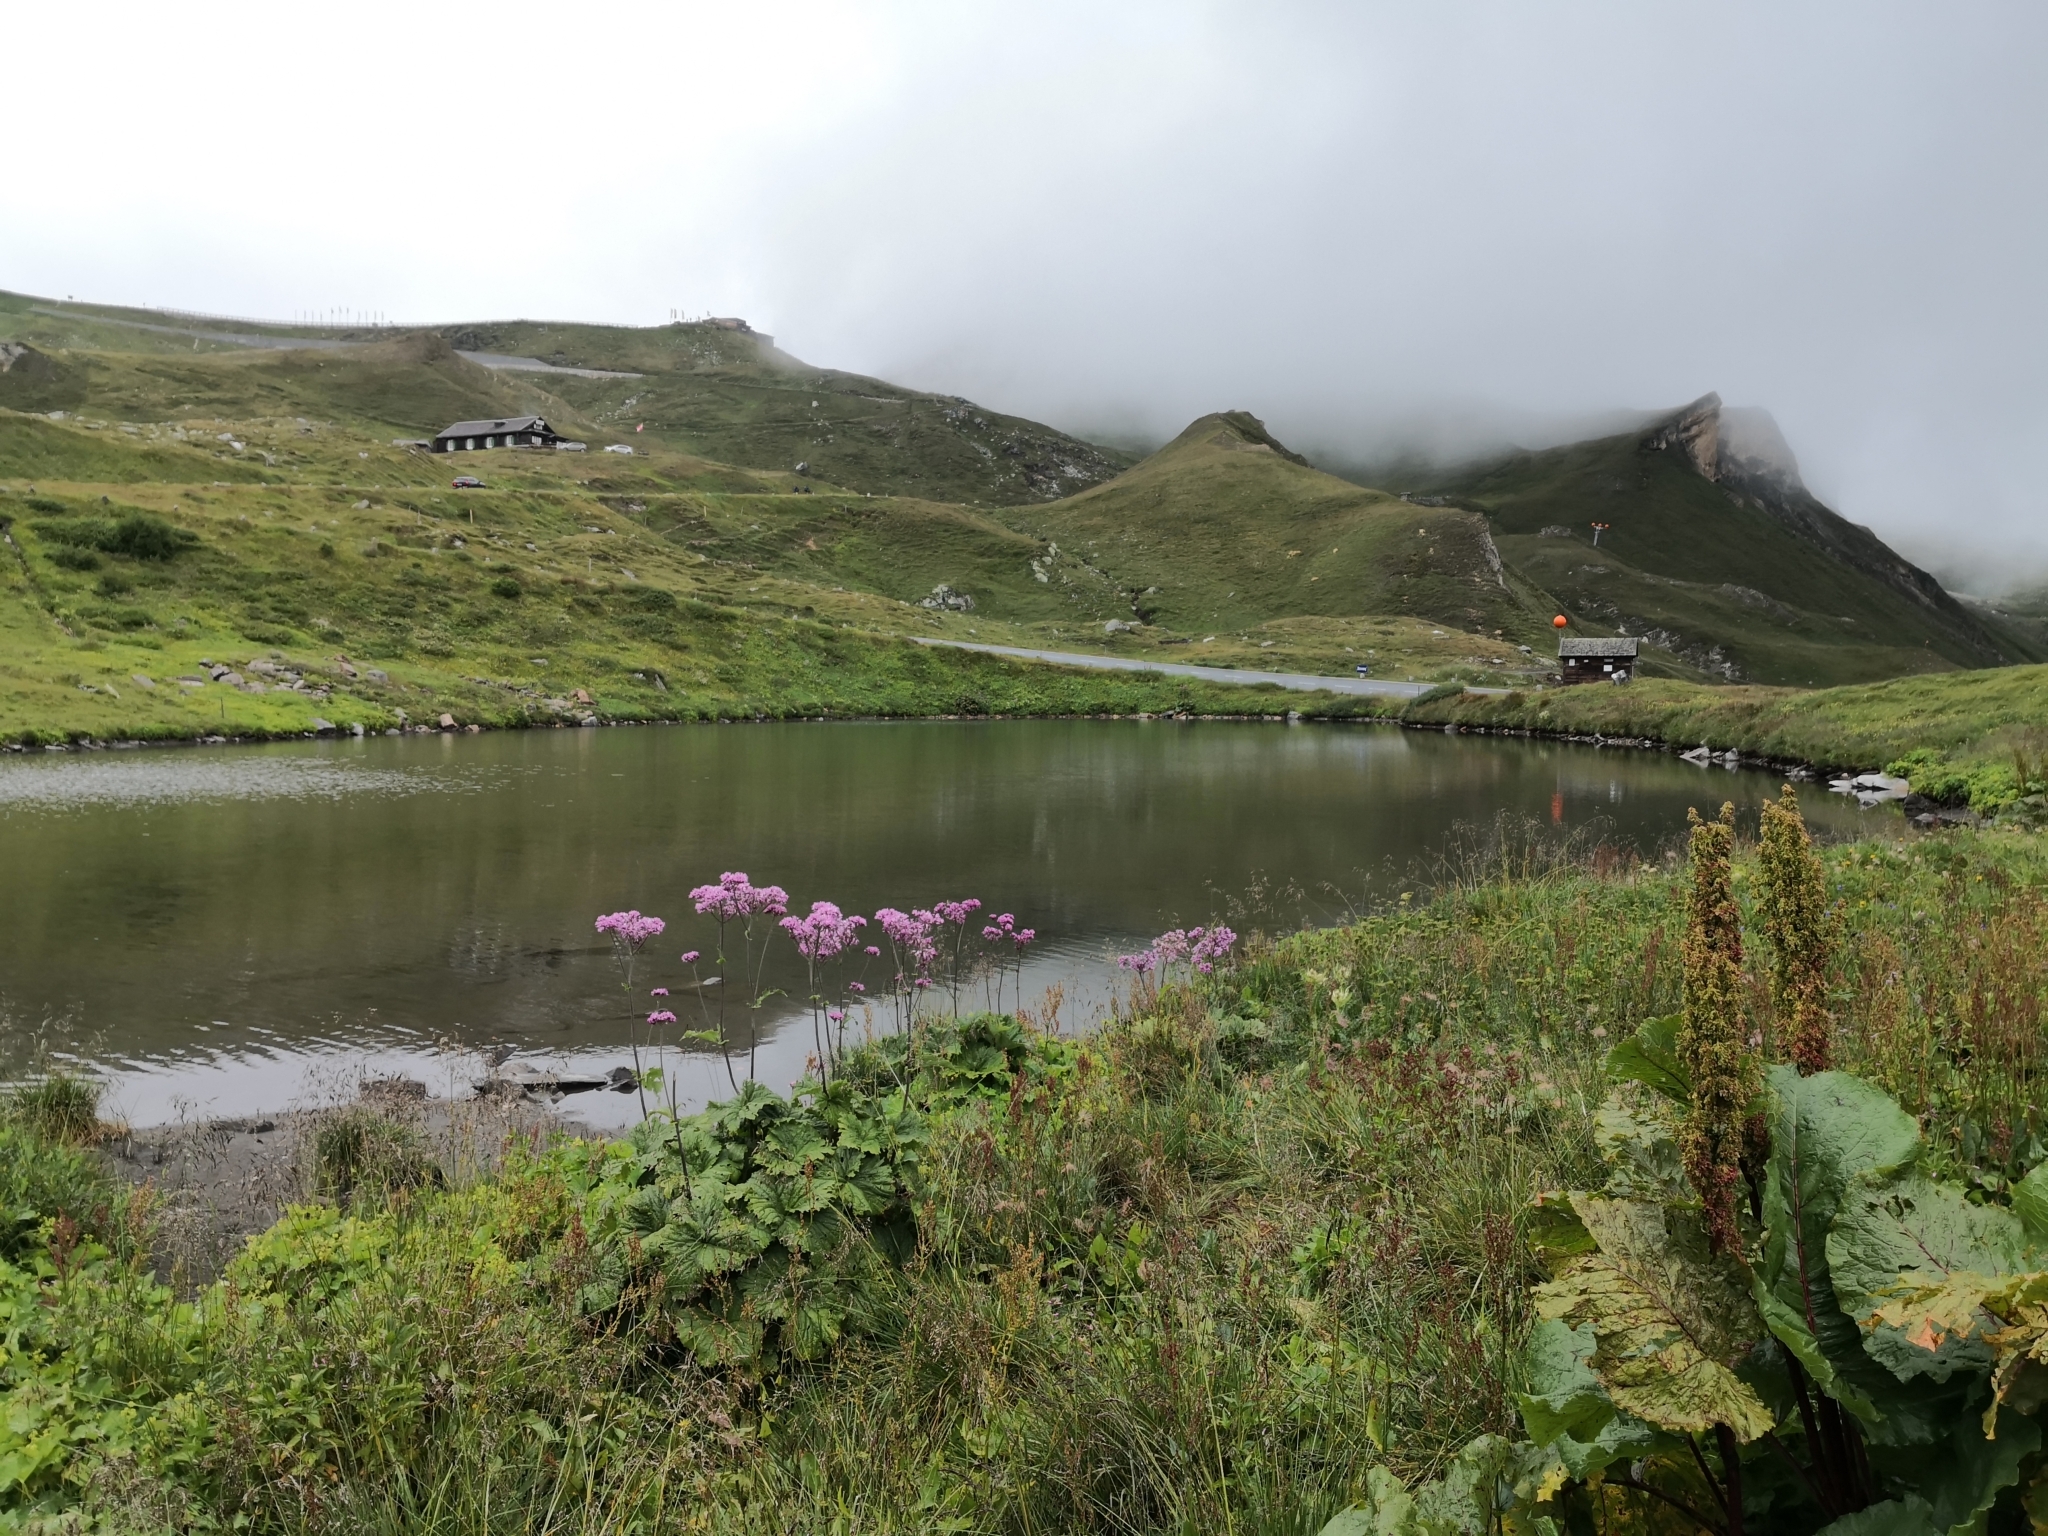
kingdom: Plantae
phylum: Tracheophyta
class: Magnoliopsida
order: Asterales
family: Asteraceae
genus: Adenostyles
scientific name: Adenostyles alliariae
